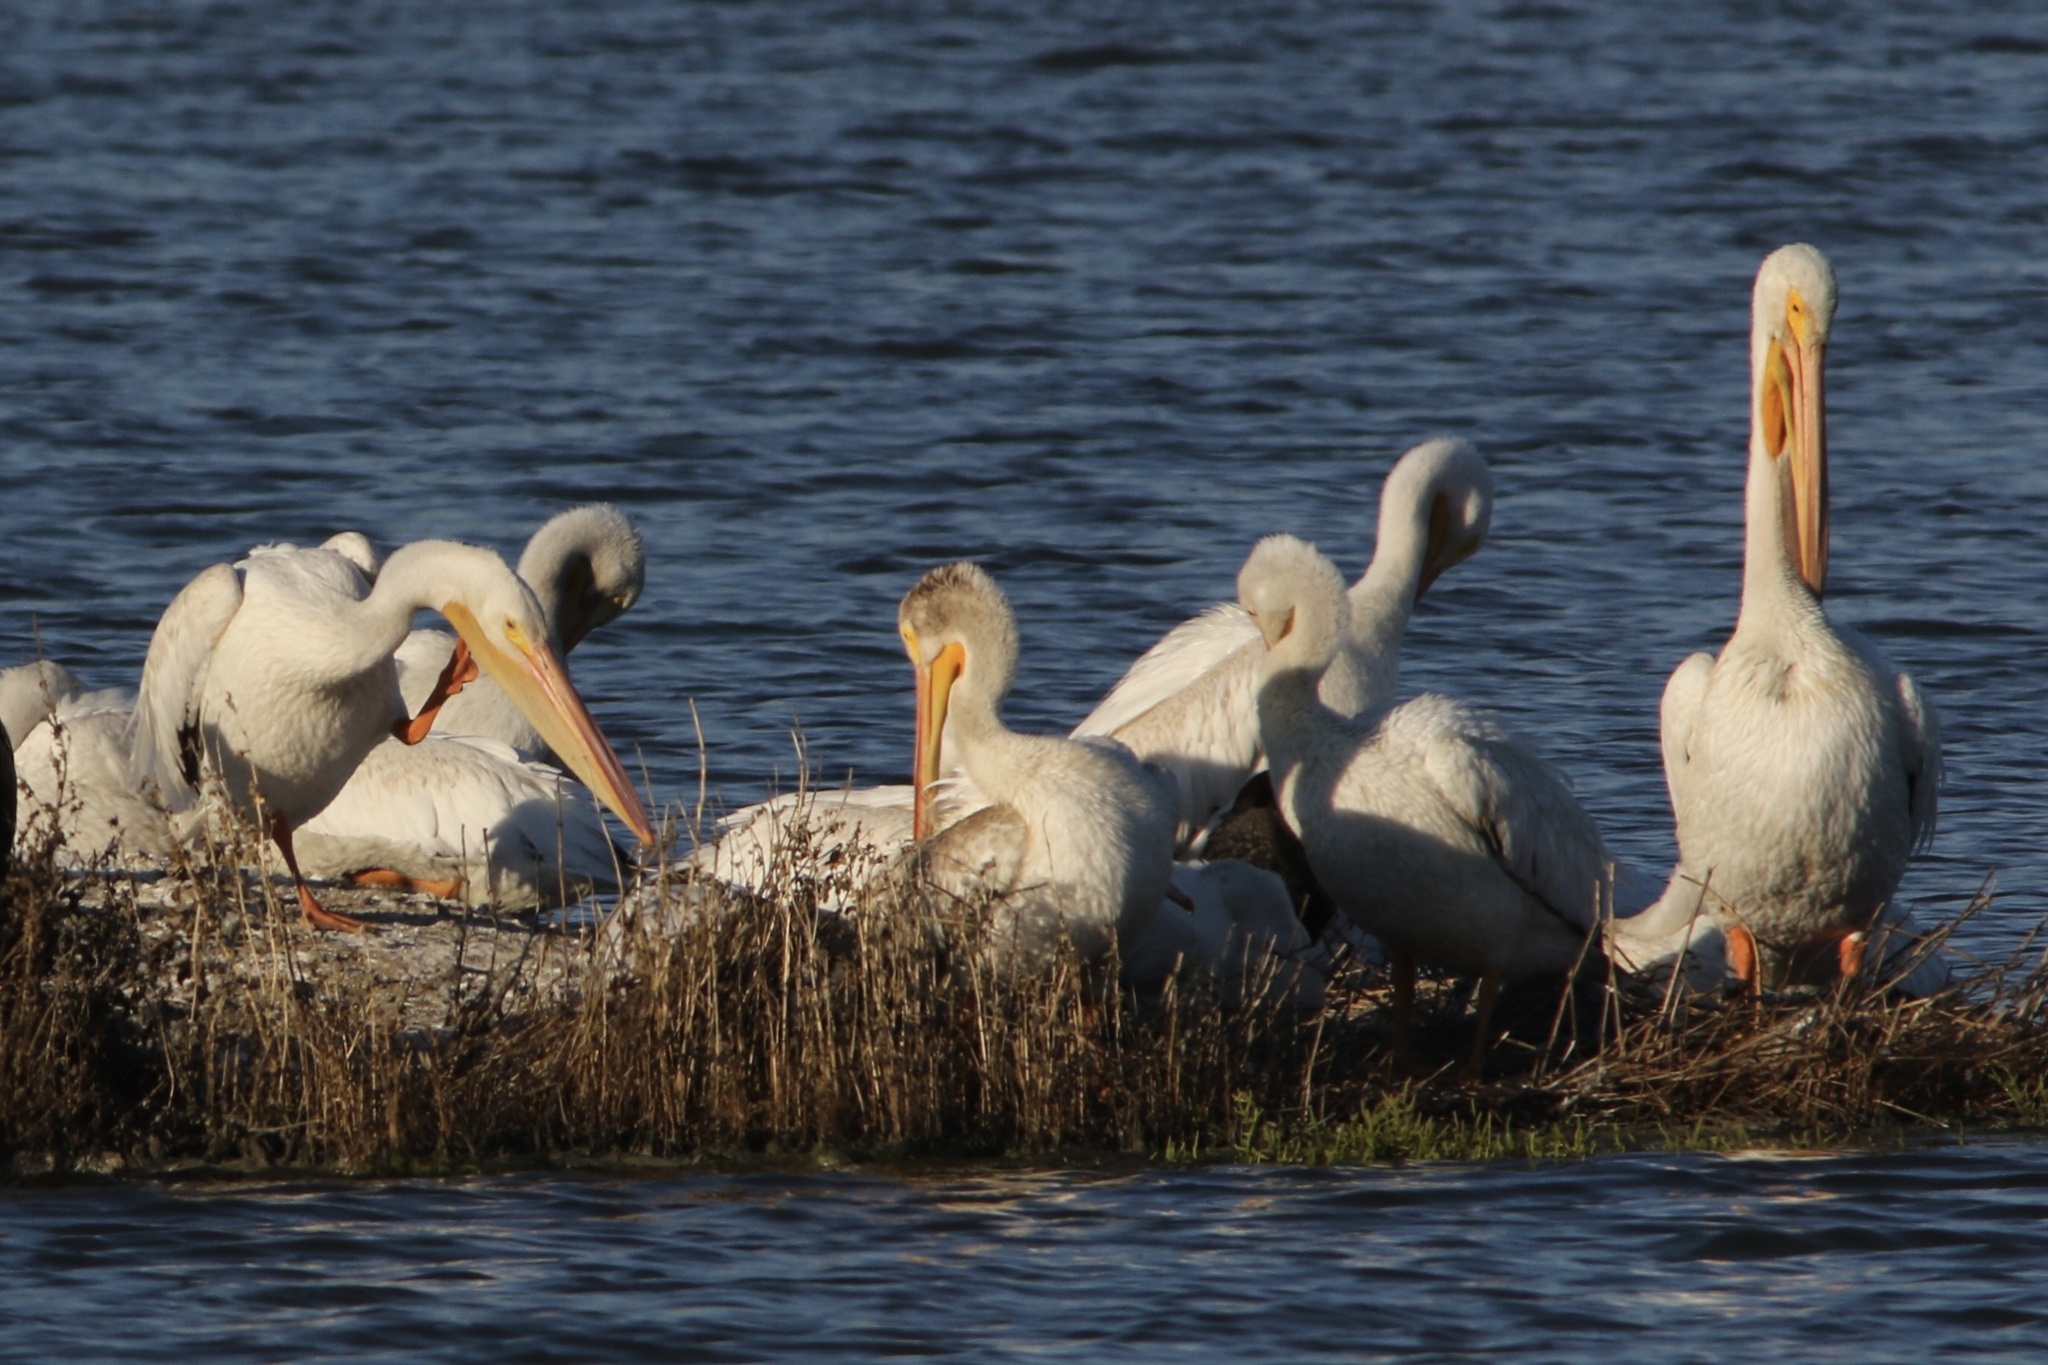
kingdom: Animalia
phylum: Chordata
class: Aves
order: Pelecaniformes
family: Pelecanidae
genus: Pelecanus
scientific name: Pelecanus erythrorhynchos
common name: American white pelican
